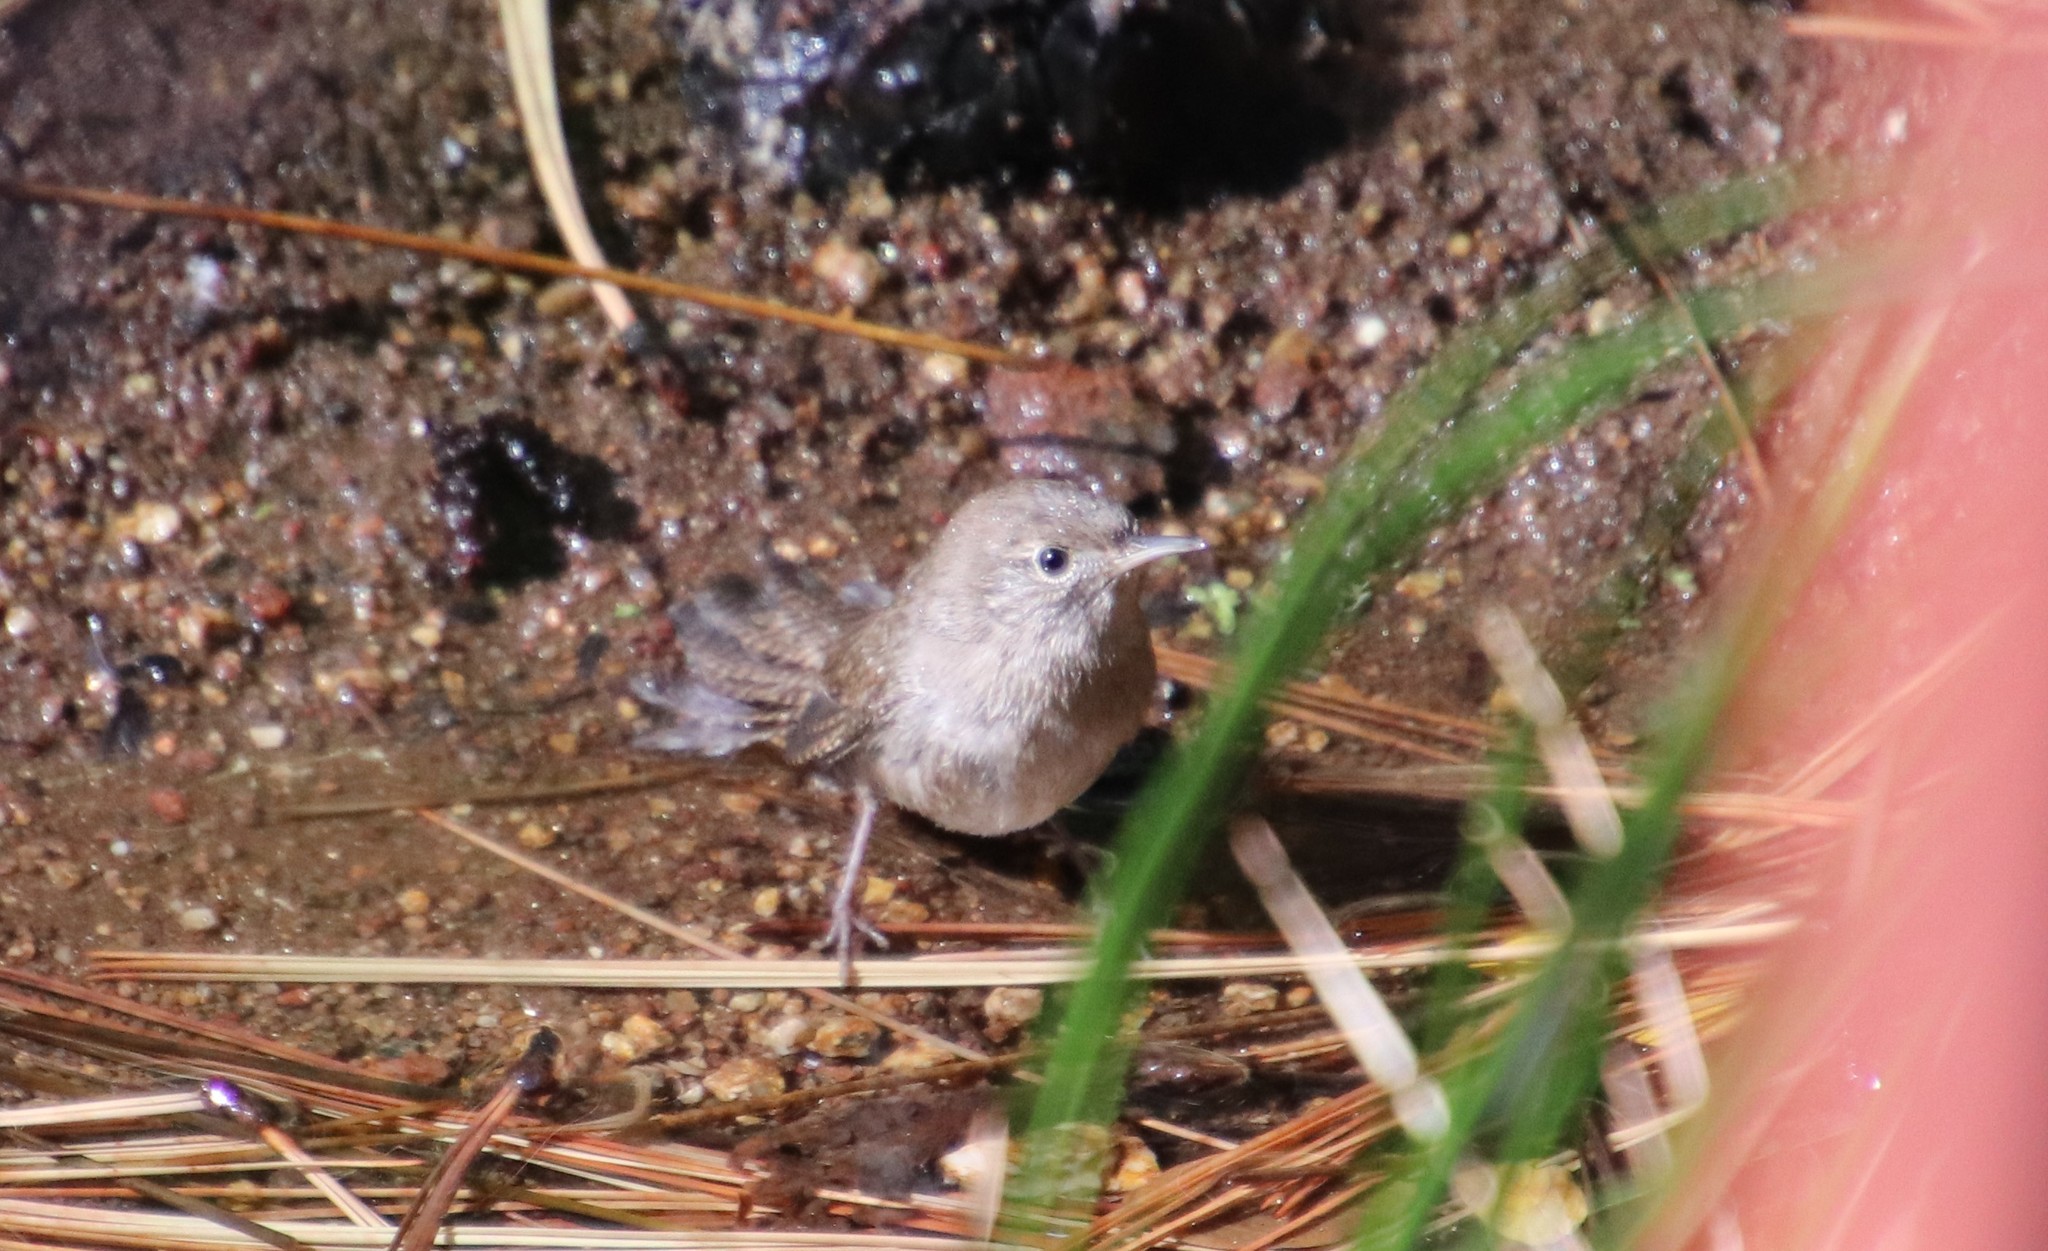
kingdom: Animalia
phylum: Chordata
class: Aves
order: Passeriformes
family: Troglodytidae
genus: Troglodytes
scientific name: Troglodytes aedon
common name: House wren
